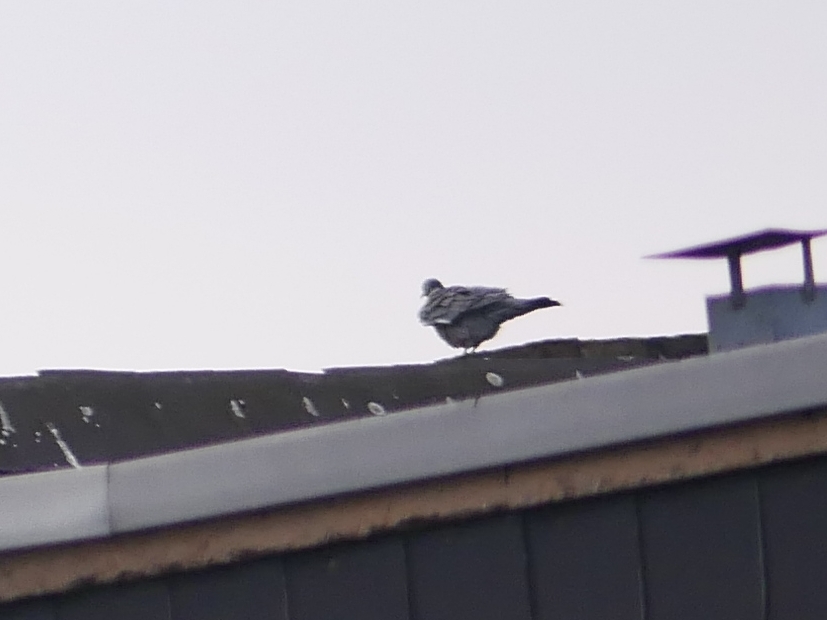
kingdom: Animalia
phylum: Chordata
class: Aves
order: Columbiformes
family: Columbidae
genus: Columba
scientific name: Columba palumbus
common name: Common wood pigeon
